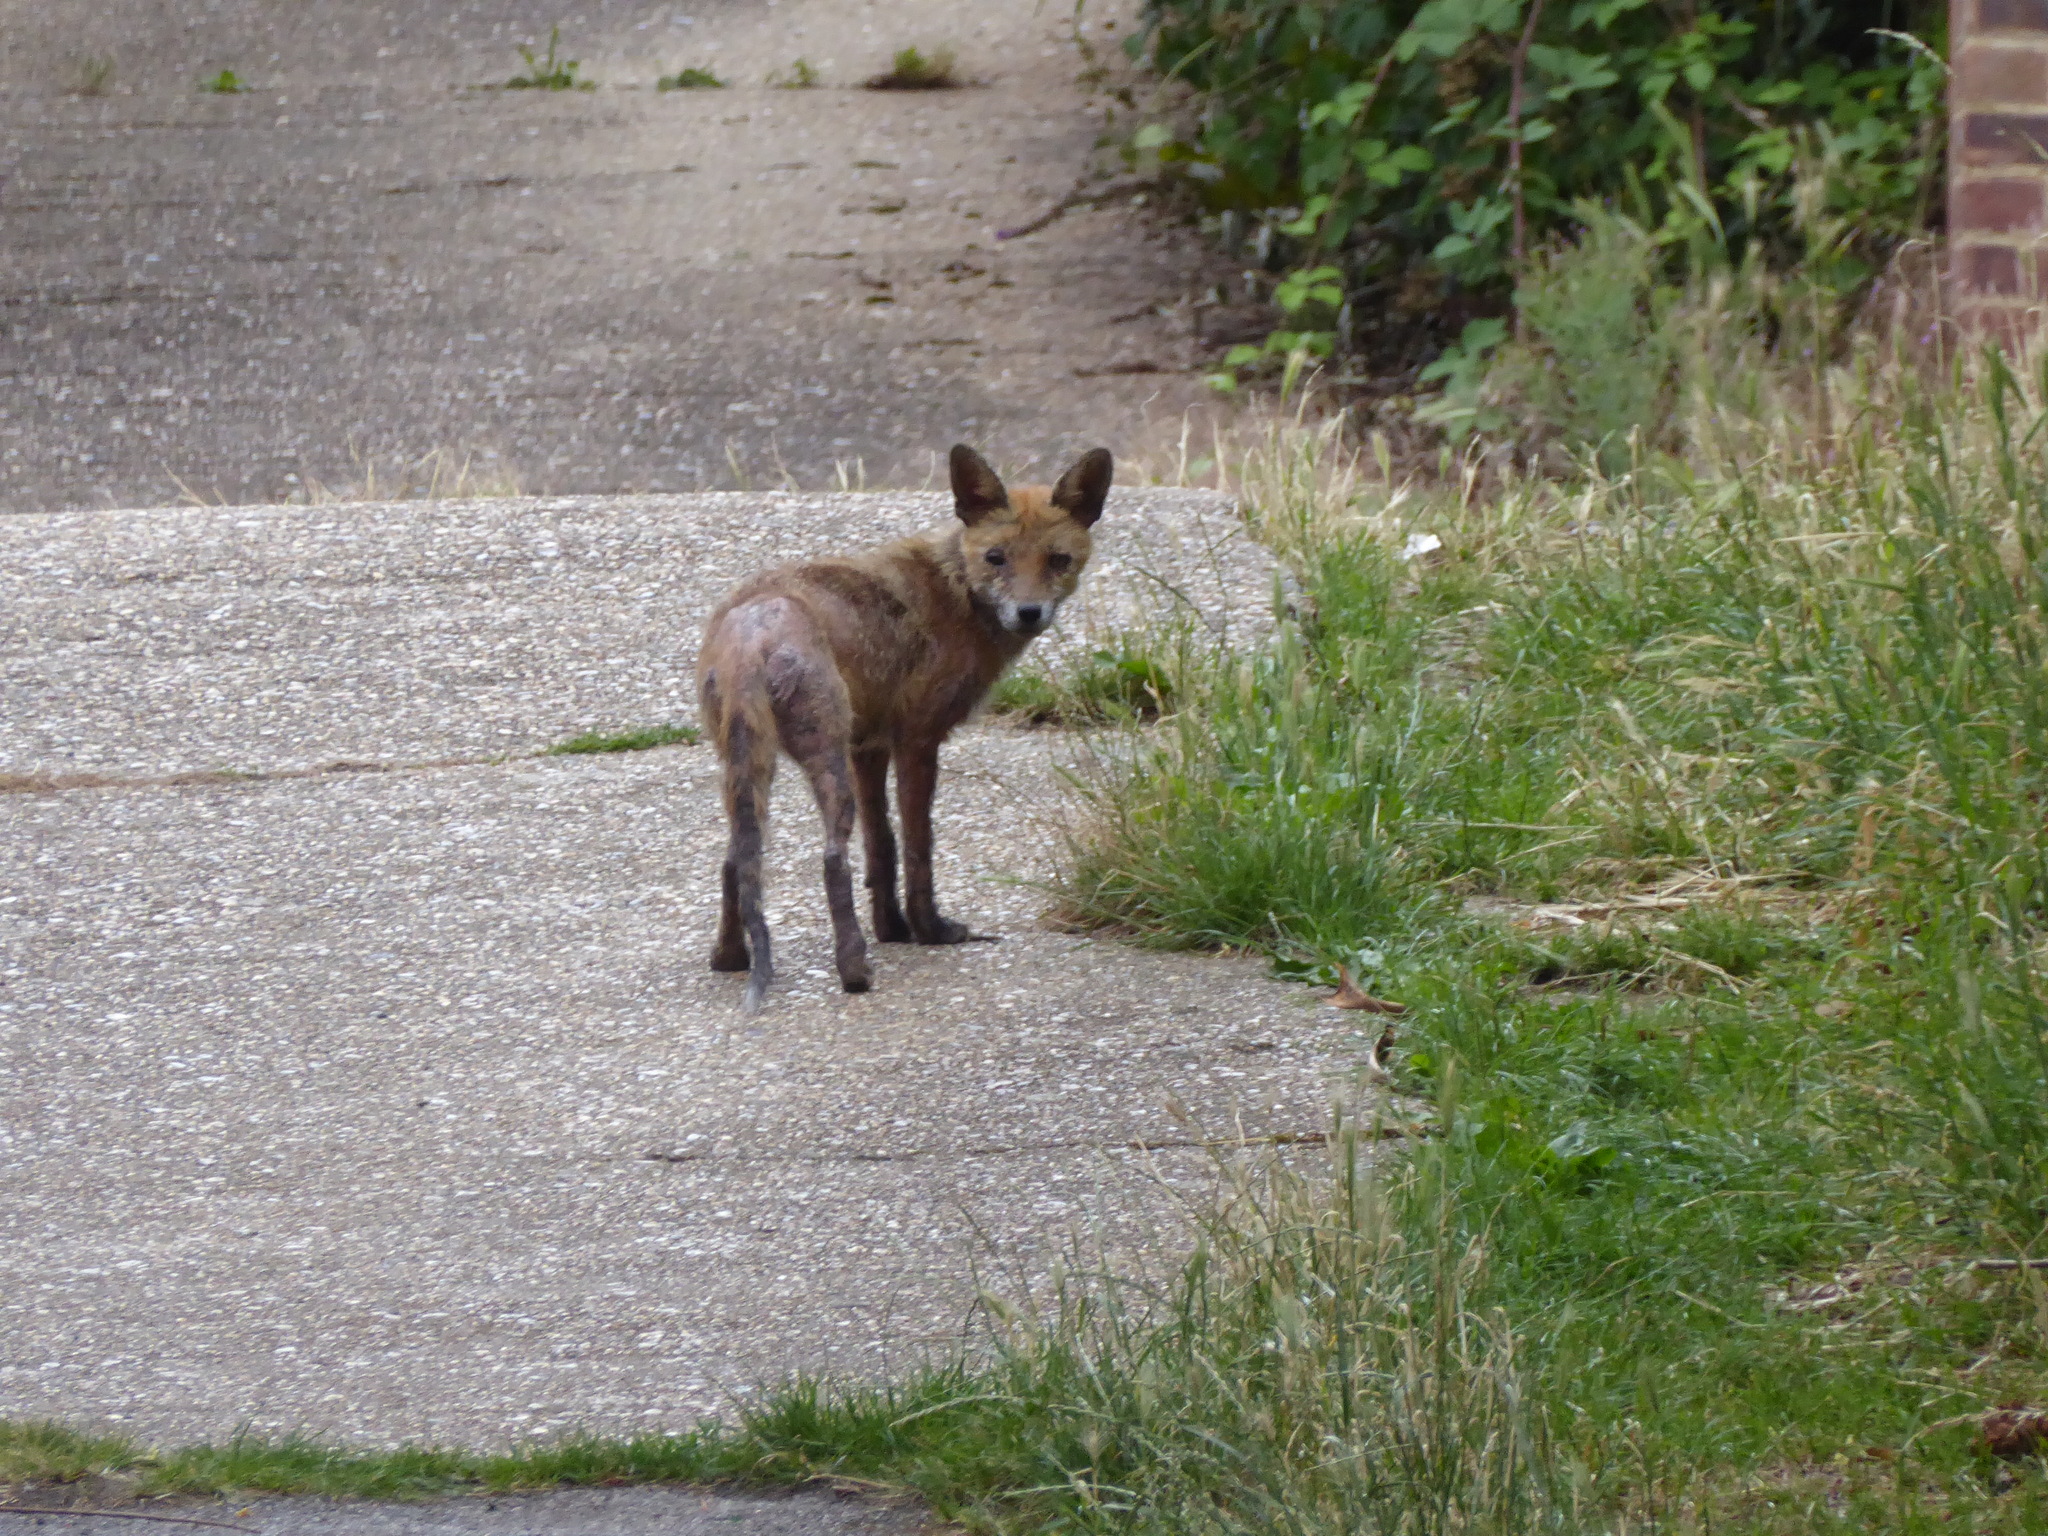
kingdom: Animalia
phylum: Chordata
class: Mammalia
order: Carnivora
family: Canidae
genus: Vulpes
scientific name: Vulpes vulpes
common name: Red fox
